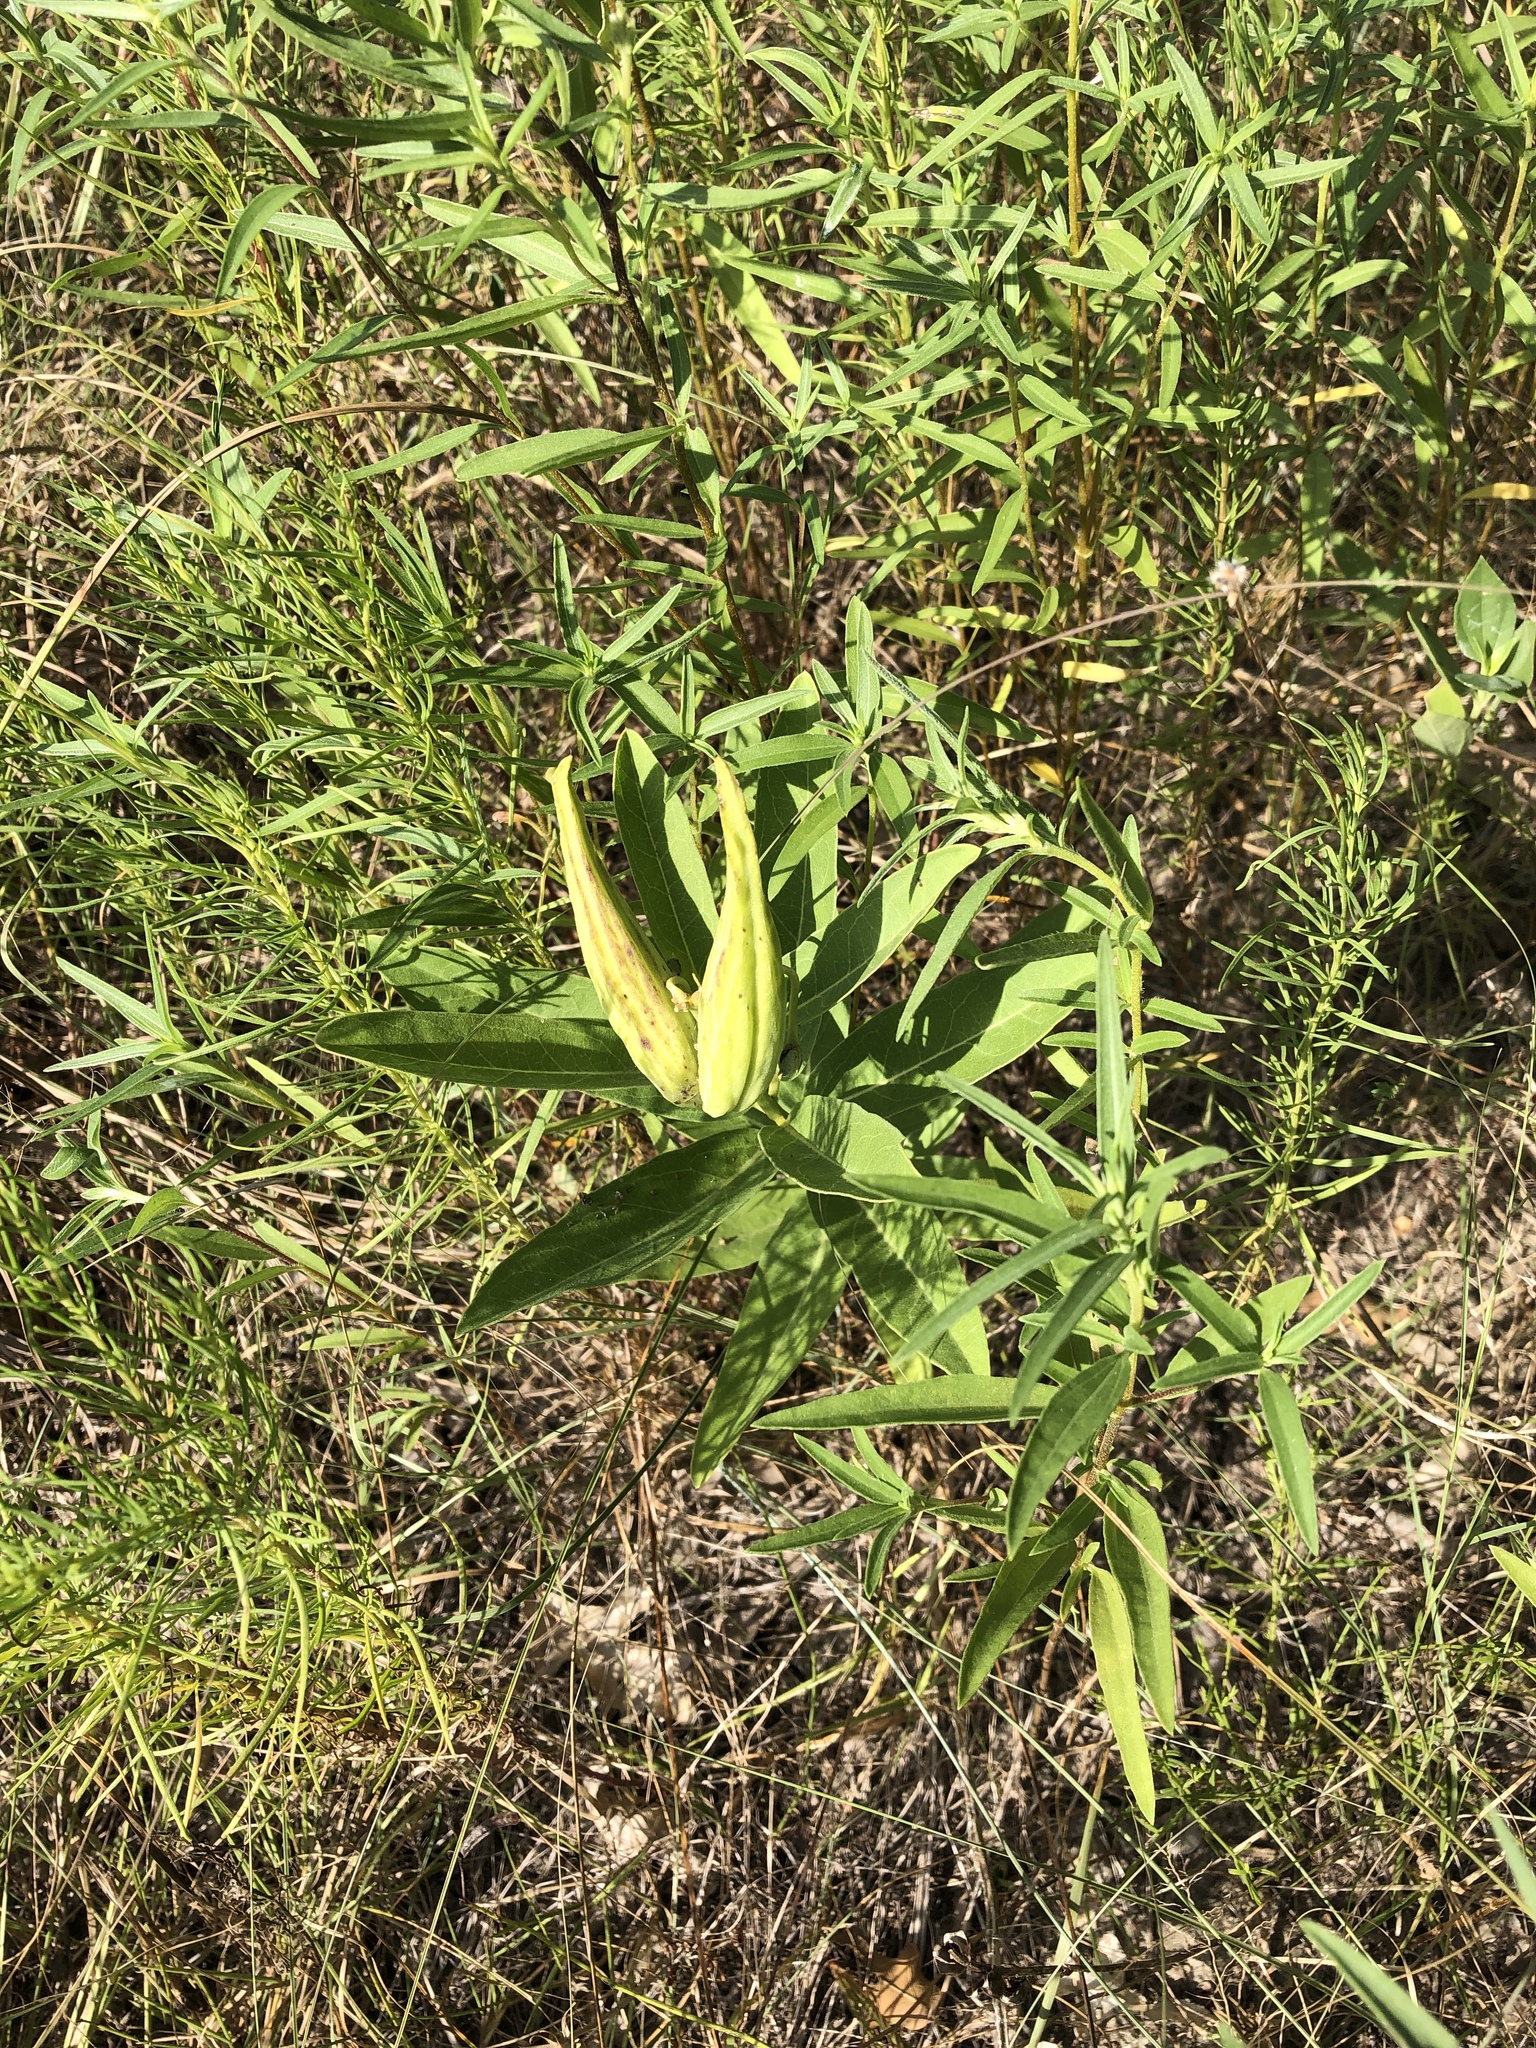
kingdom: Plantae
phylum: Tracheophyta
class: Magnoliopsida
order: Gentianales
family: Apocynaceae
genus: Asclepias
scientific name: Asclepias viridis
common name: Antelope-horns
